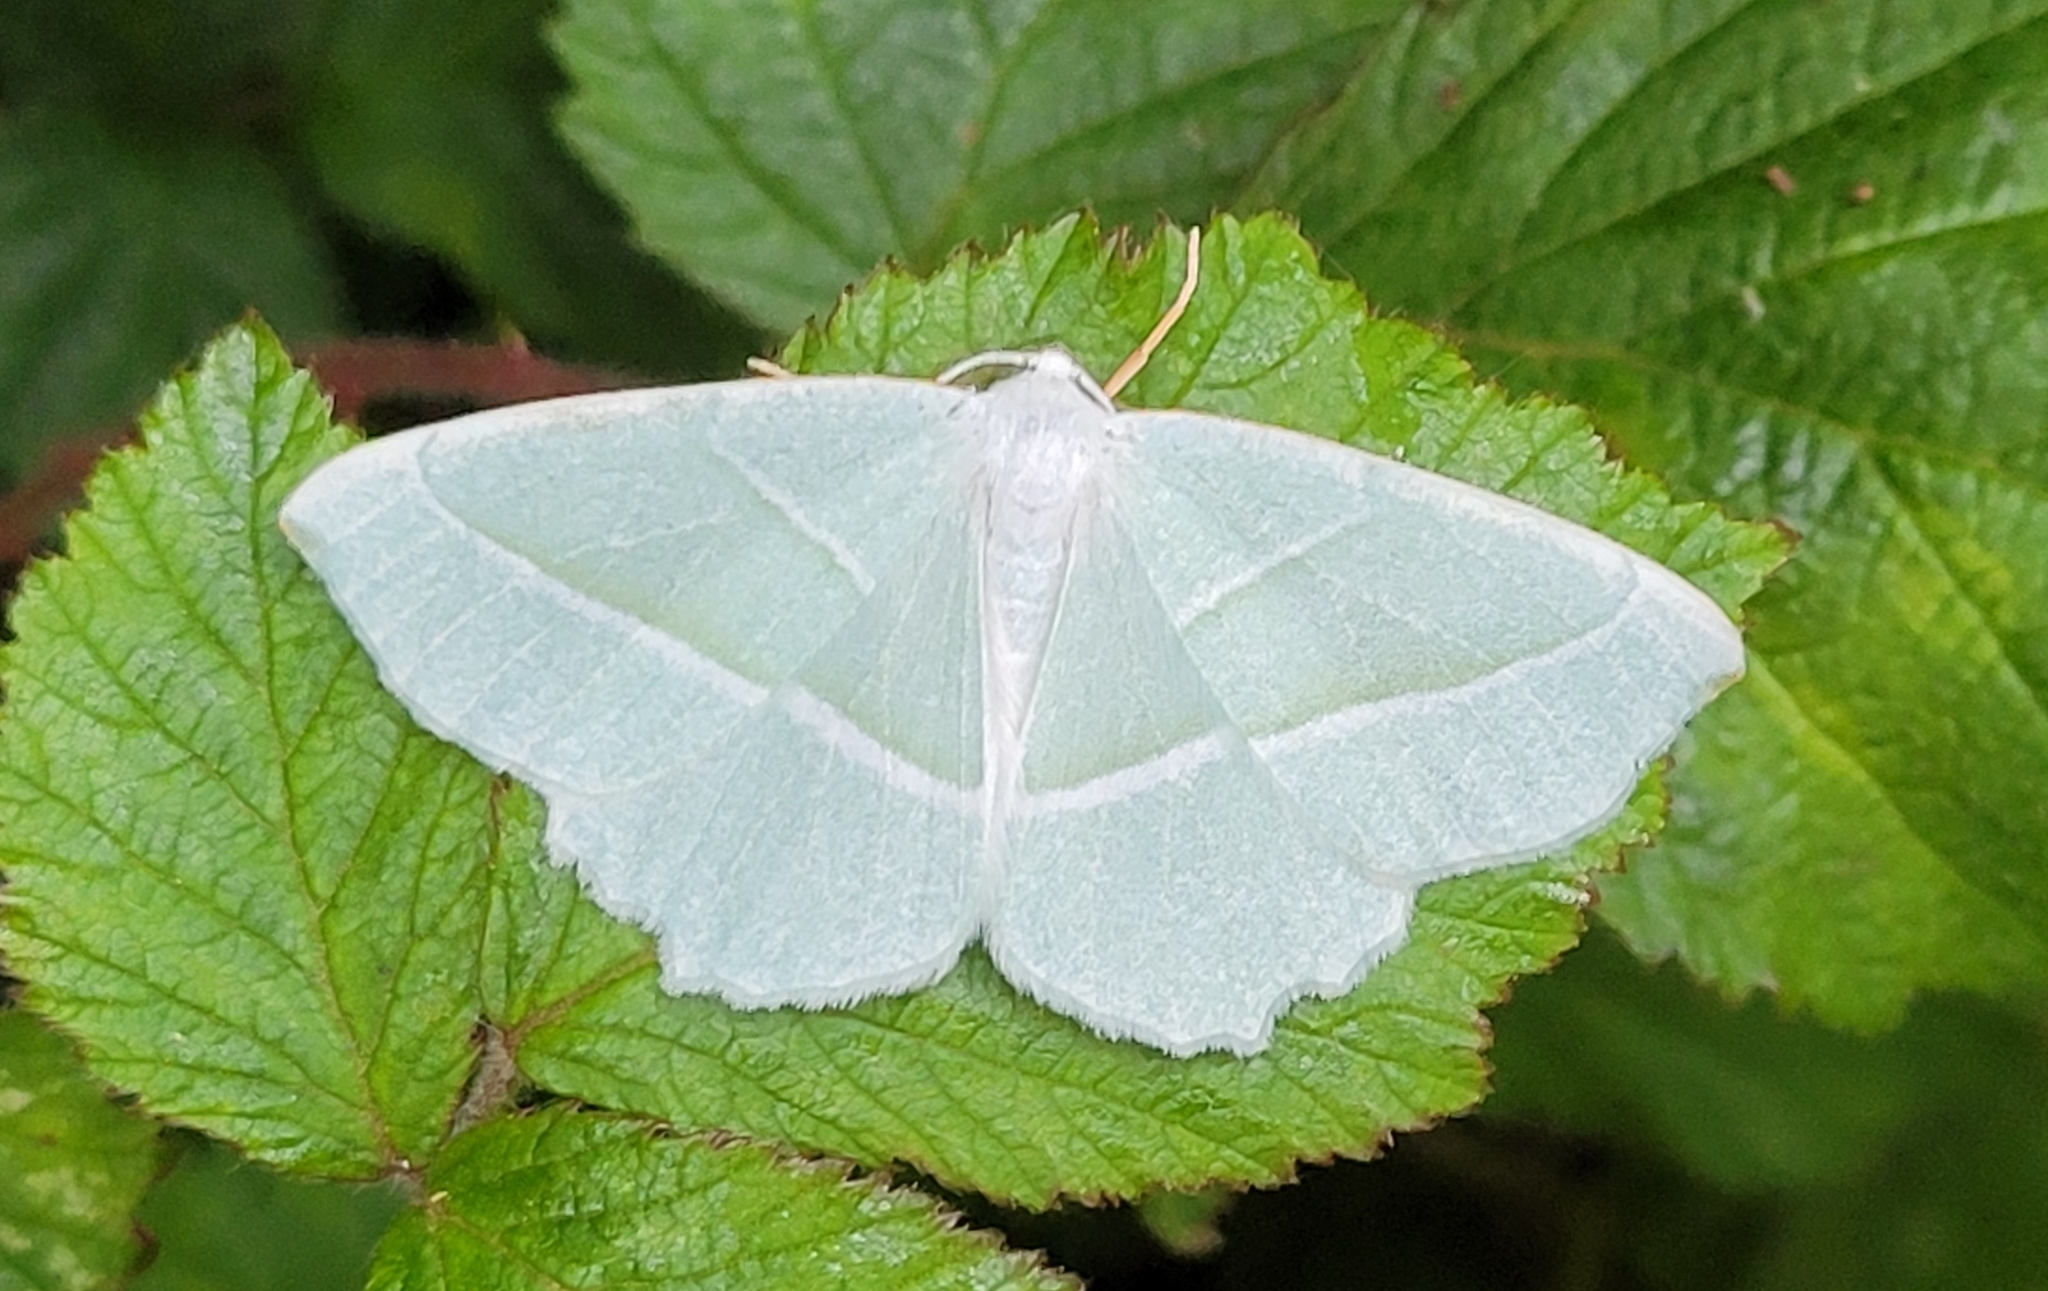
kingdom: Animalia
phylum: Arthropoda
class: Insecta
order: Lepidoptera
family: Geometridae
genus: Campaea
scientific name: Campaea margaritaria
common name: Light emerald
